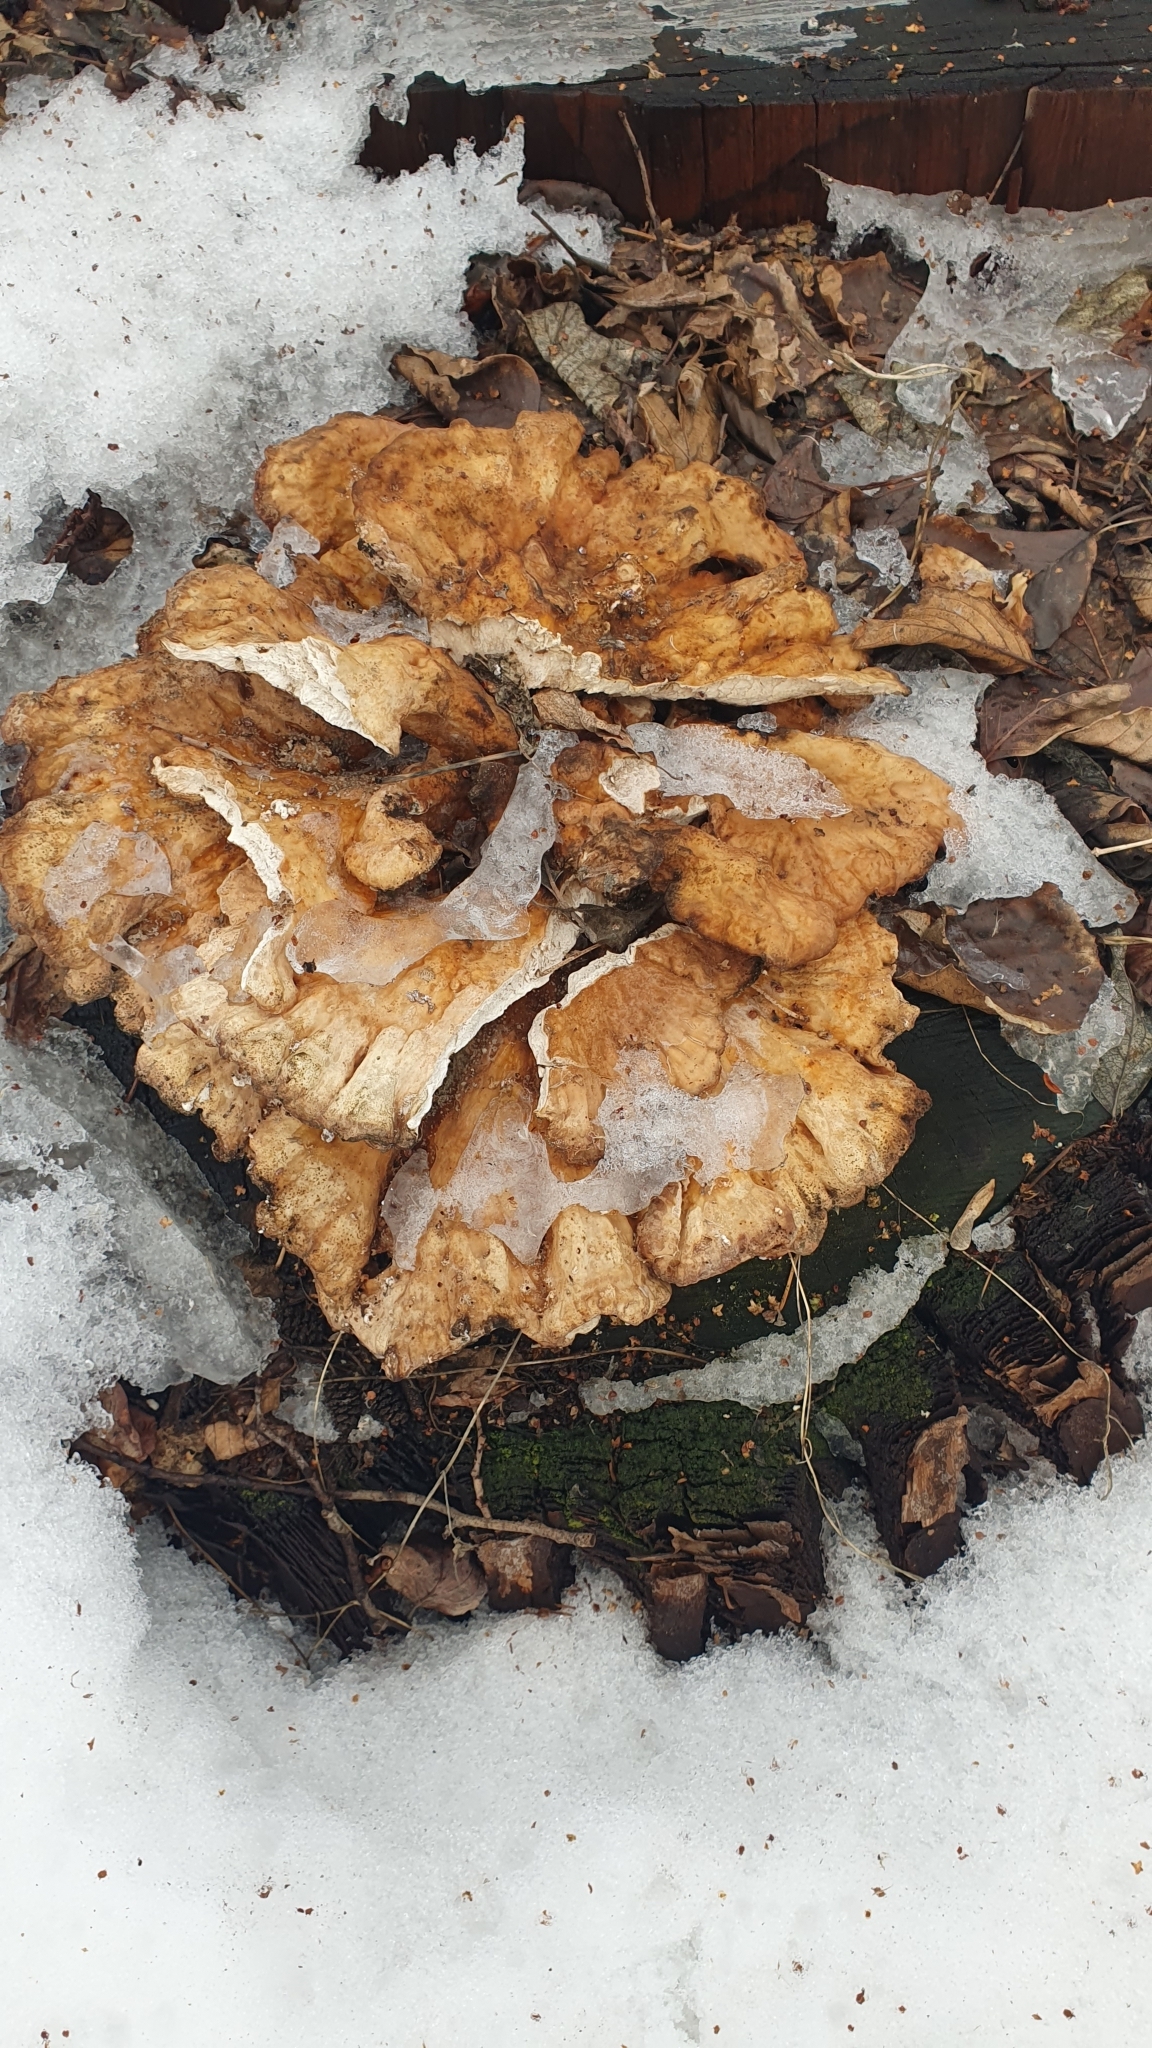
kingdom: Fungi
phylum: Basidiomycota
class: Agaricomycetes
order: Polyporales
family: Laetiporaceae
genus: Laetiporus
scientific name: Laetiporus sulphureus
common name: Chicken of the woods
